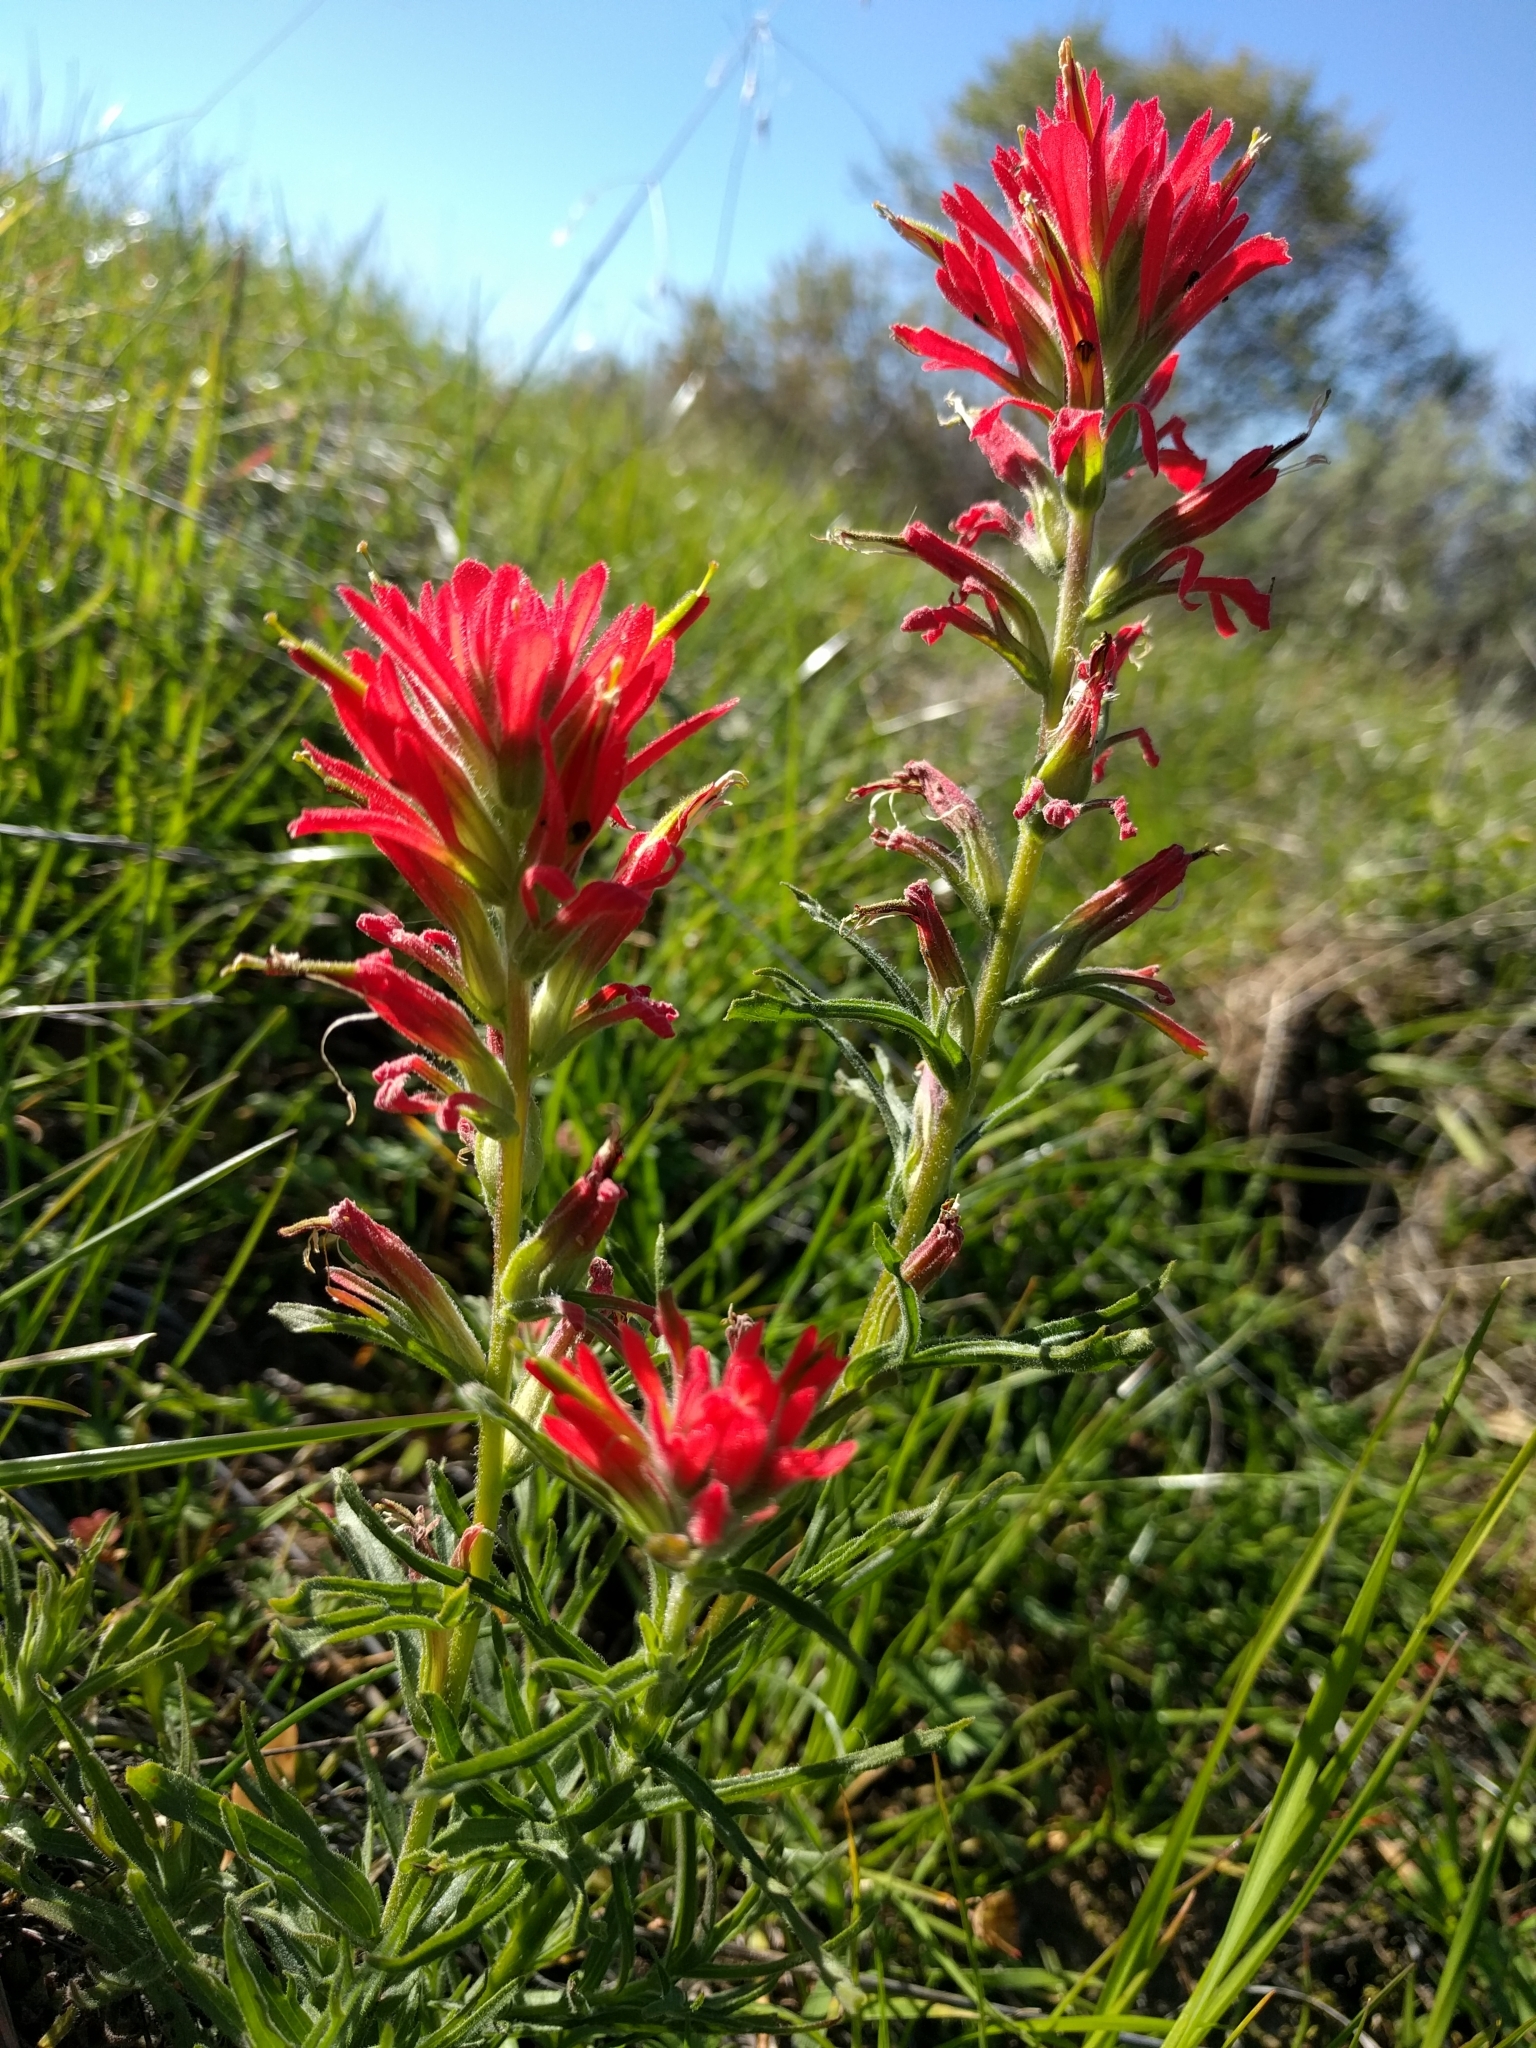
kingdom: Plantae
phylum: Tracheophyta
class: Magnoliopsida
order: Lamiales
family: Orobanchaceae
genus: Castilleja
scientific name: Castilleja affinis
